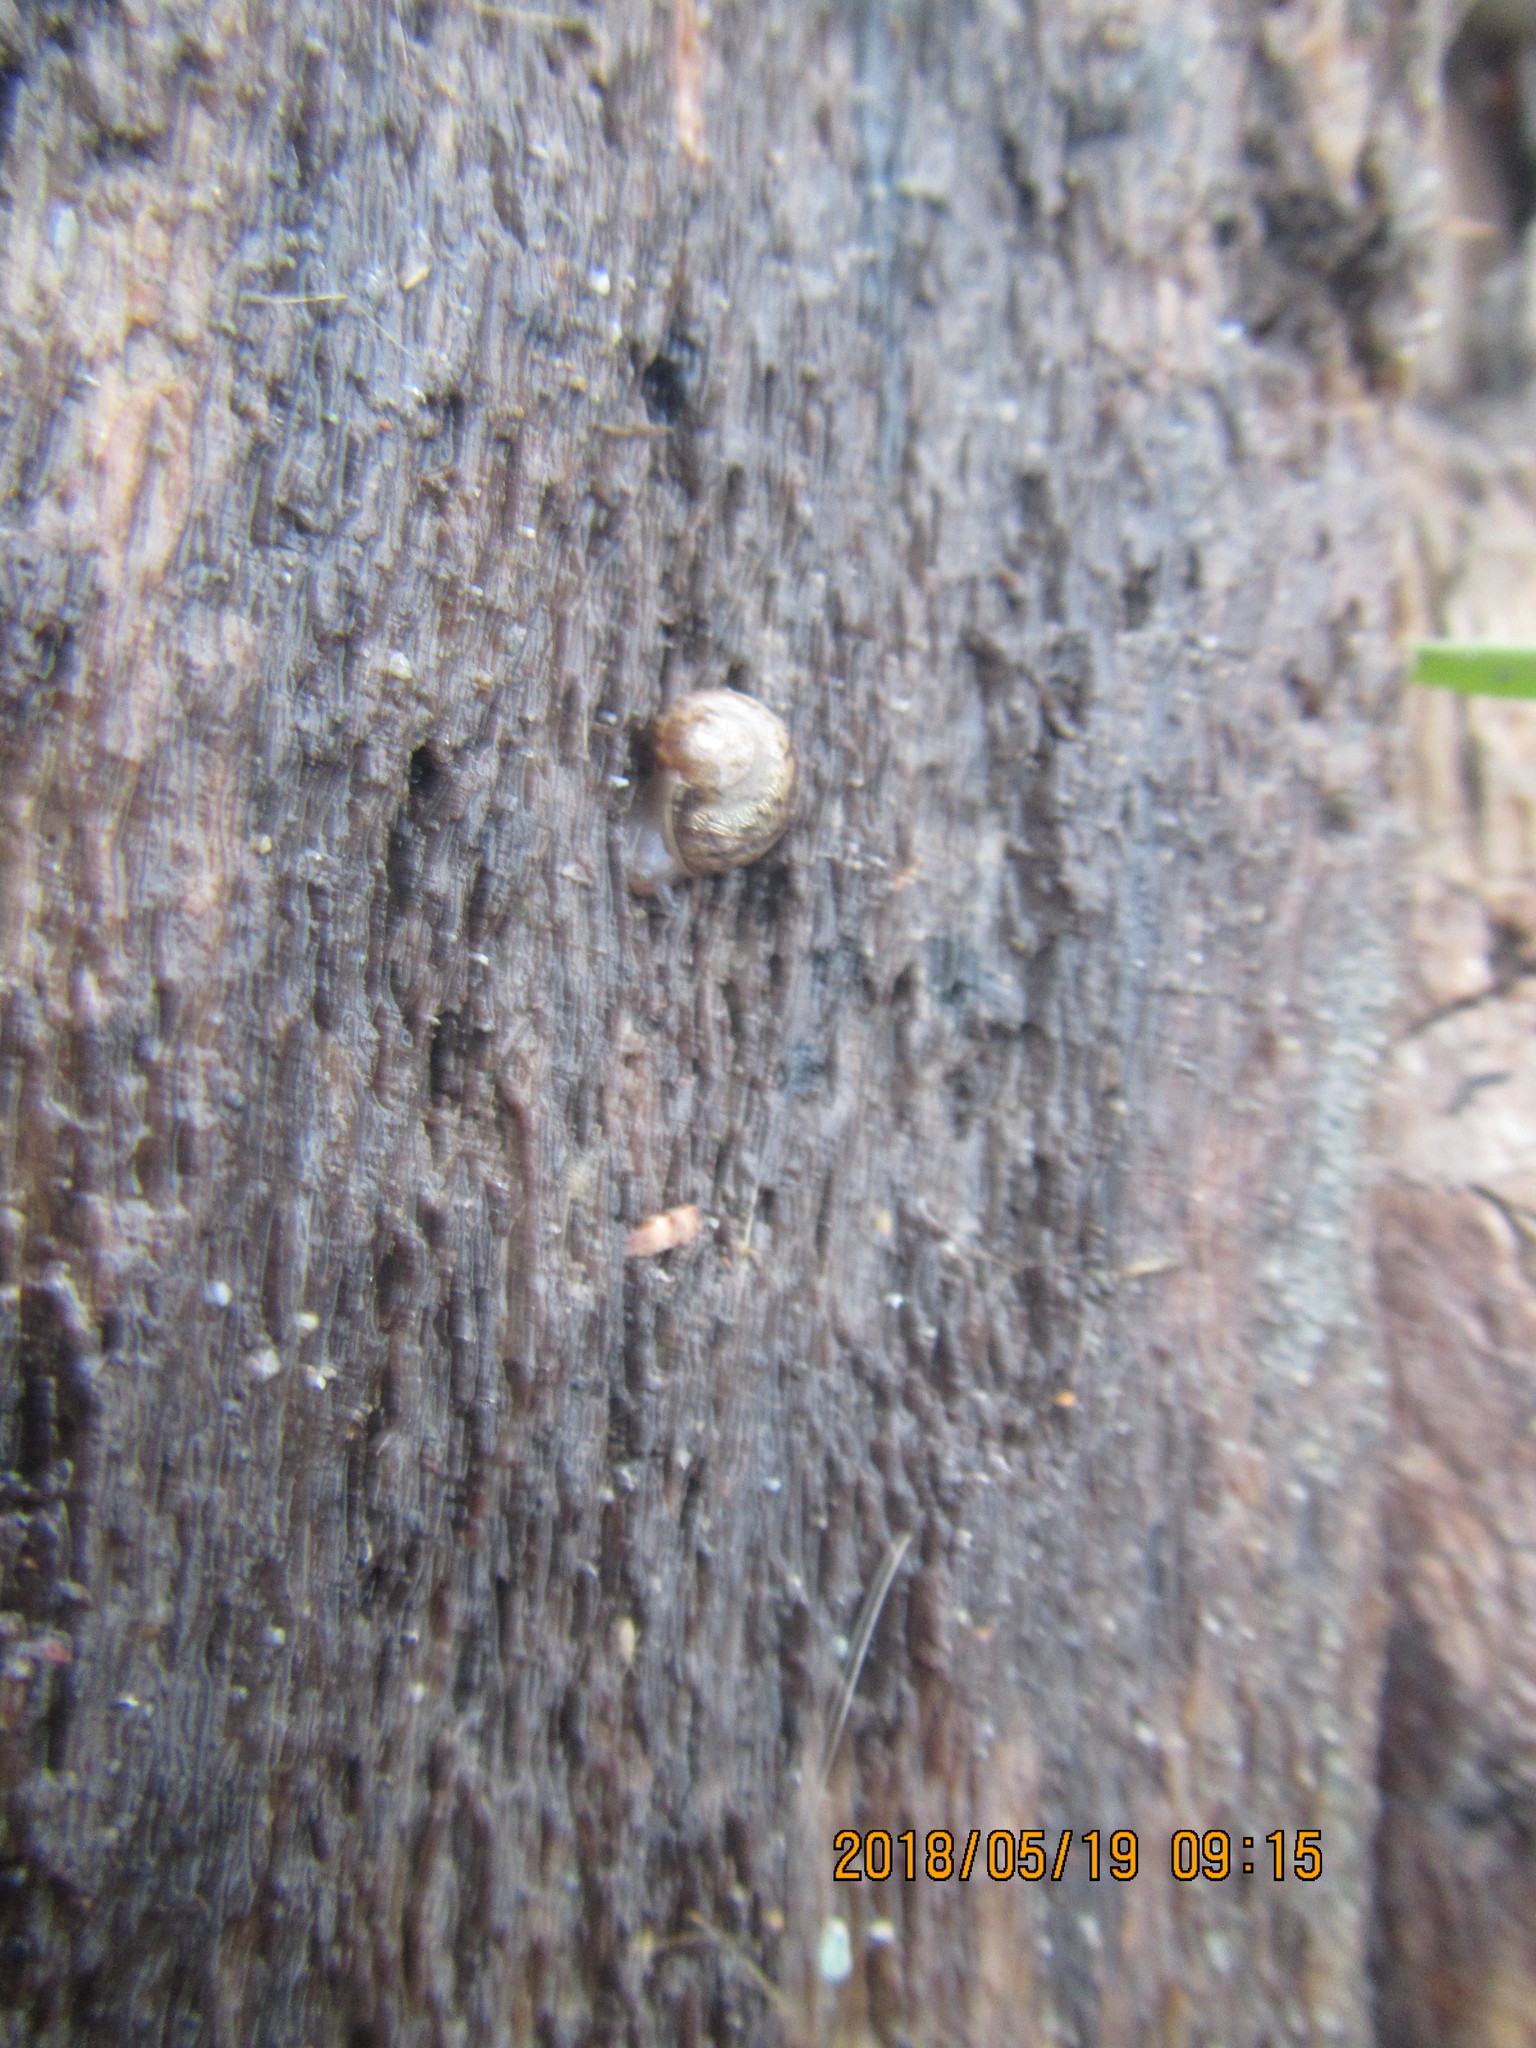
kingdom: Animalia
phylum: Mollusca
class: Gastropoda
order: Stylommatophora
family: Helicidae
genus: Cornu
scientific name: Cornu aspersum
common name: Brown garden snail
